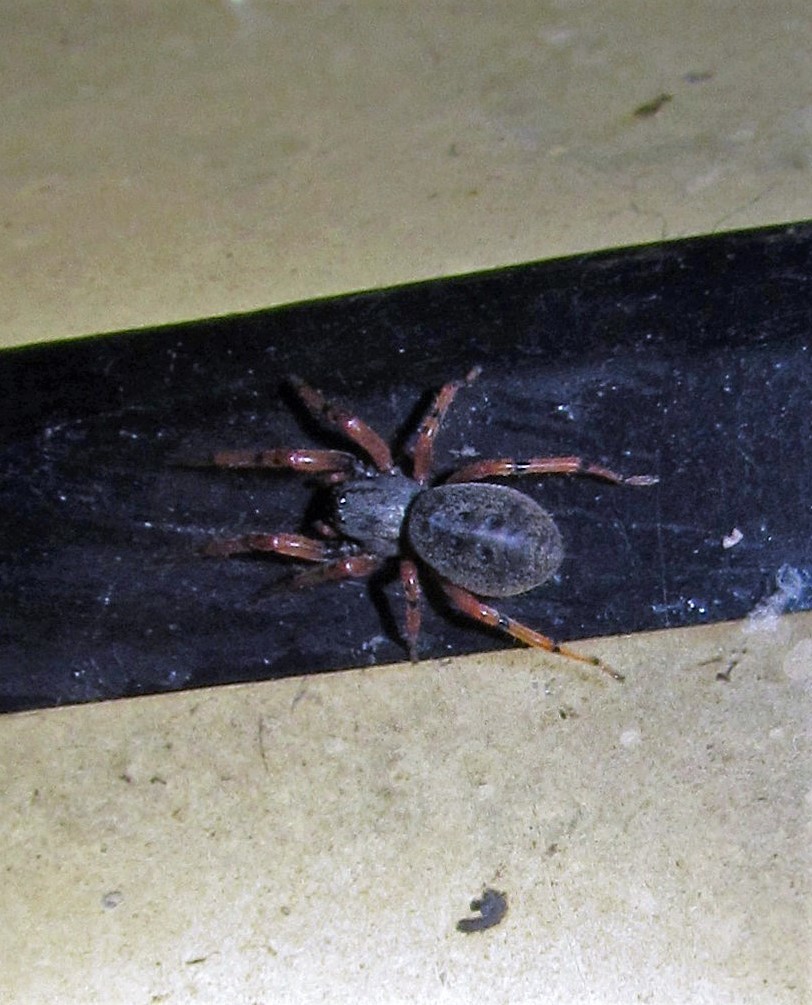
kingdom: Animalia
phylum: Arthropoda
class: Arachnida
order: Araneae
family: Trachelidae
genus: Trachelopachys
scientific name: Trachelopachys
